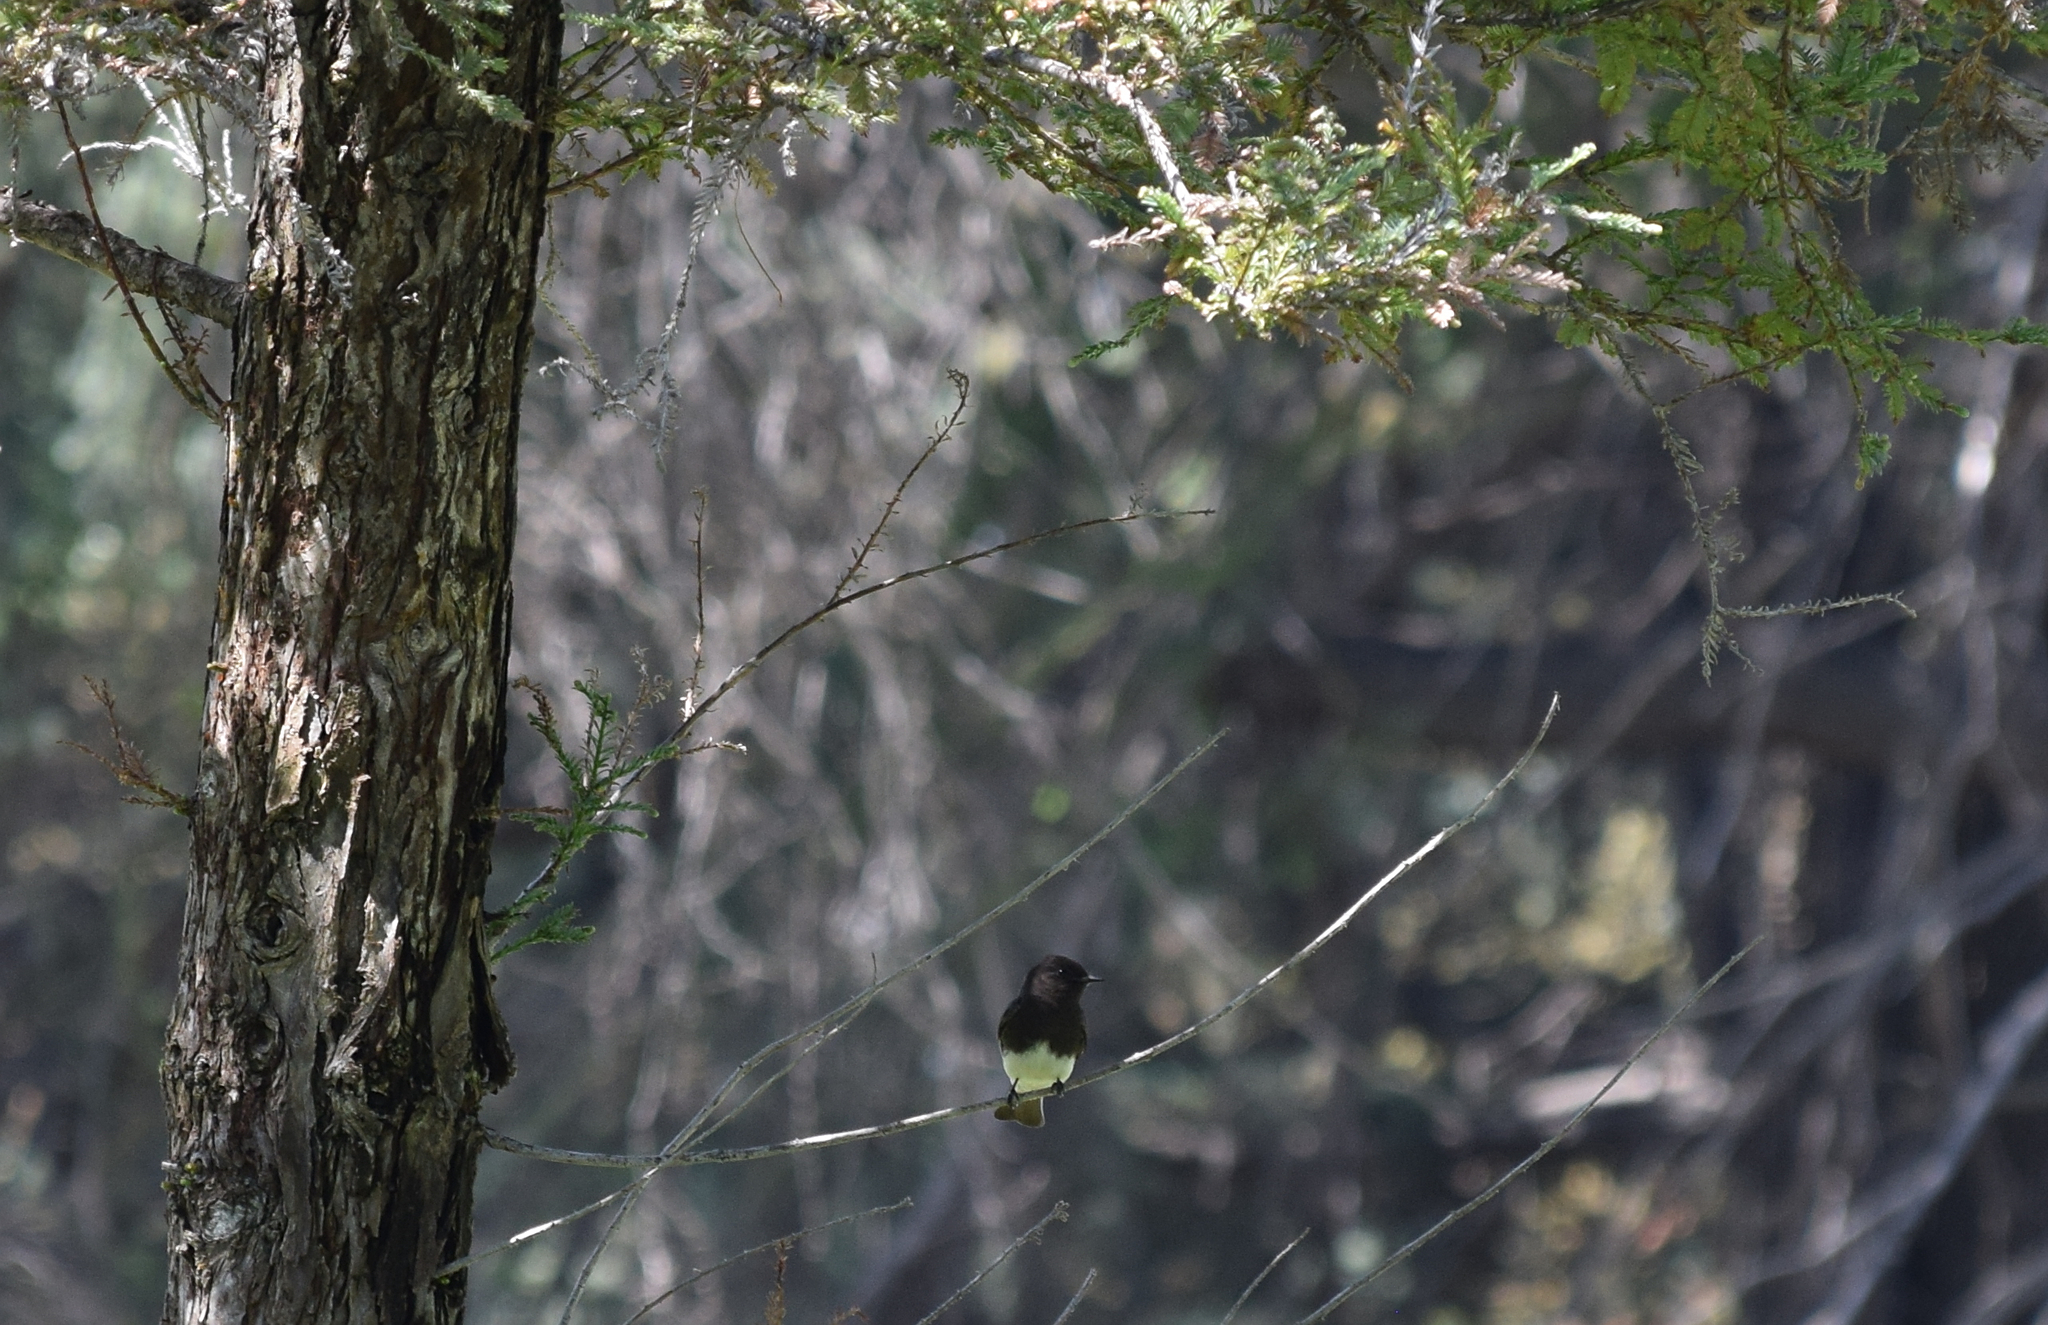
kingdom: Animalia
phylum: Chordata
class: Aves
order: Passeriformes
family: Tyrannidae
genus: Sayornis
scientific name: Sayornis nigricans
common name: Black phoebe
